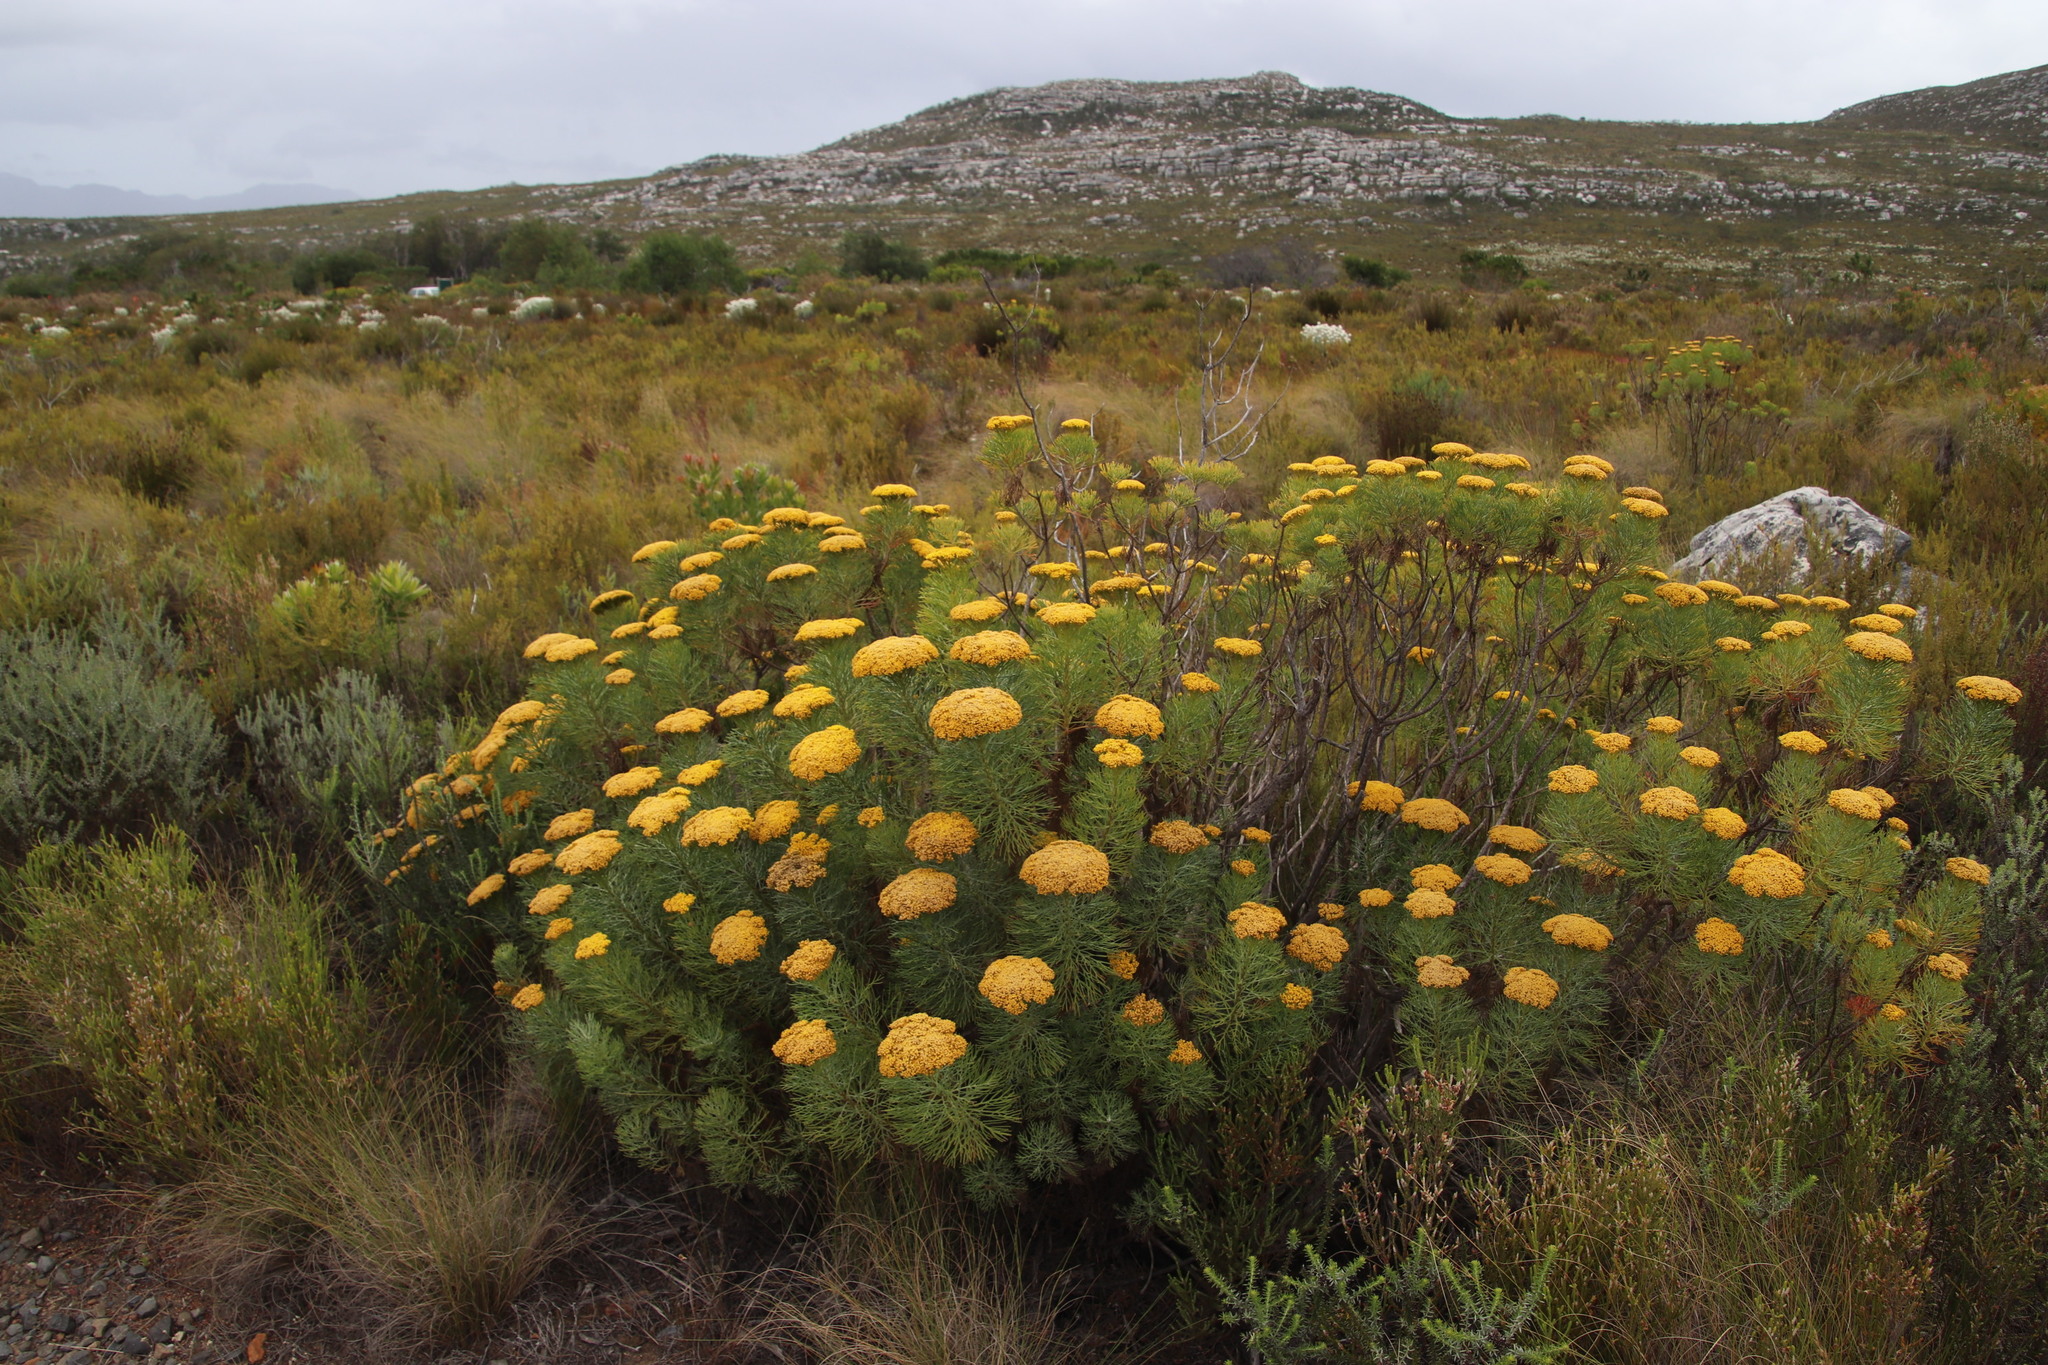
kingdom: Plantae
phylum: Tracheophyta
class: Magnoliopsida
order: Asterales
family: Asteraceae
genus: Hymenolepis
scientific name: Hymenolepis crithmifolia
